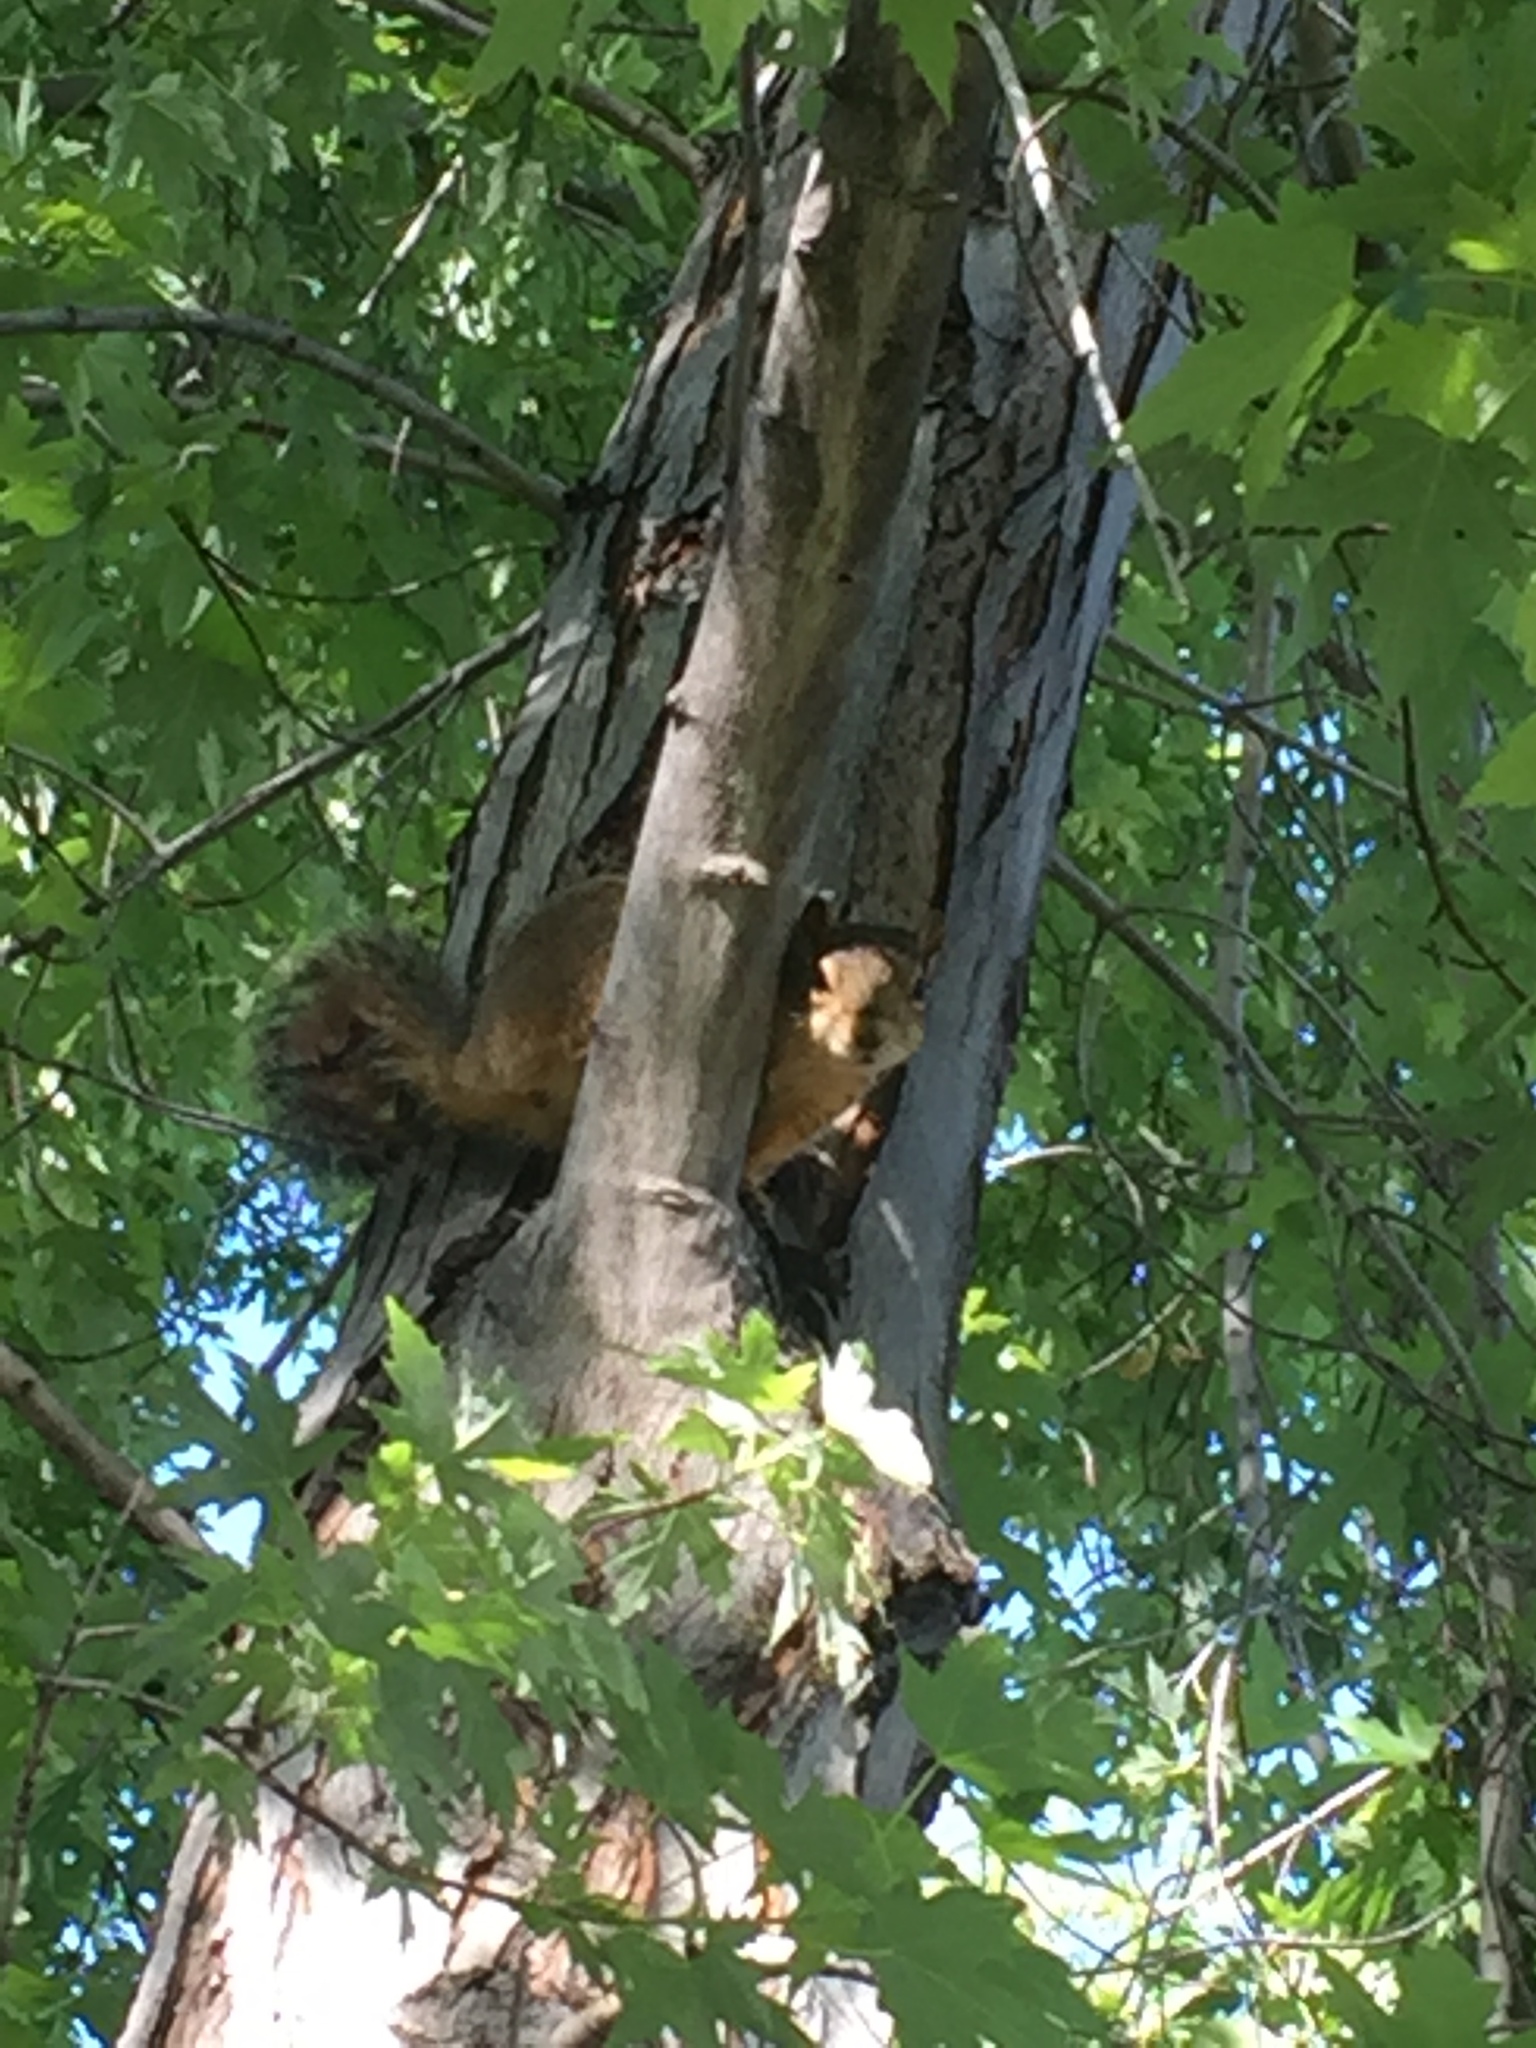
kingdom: Animalia
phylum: Chordata
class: Mammalia
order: Rodentia
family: Sciuridae
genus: Sciurus
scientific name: Sciurus niger
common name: Fox squirrel
